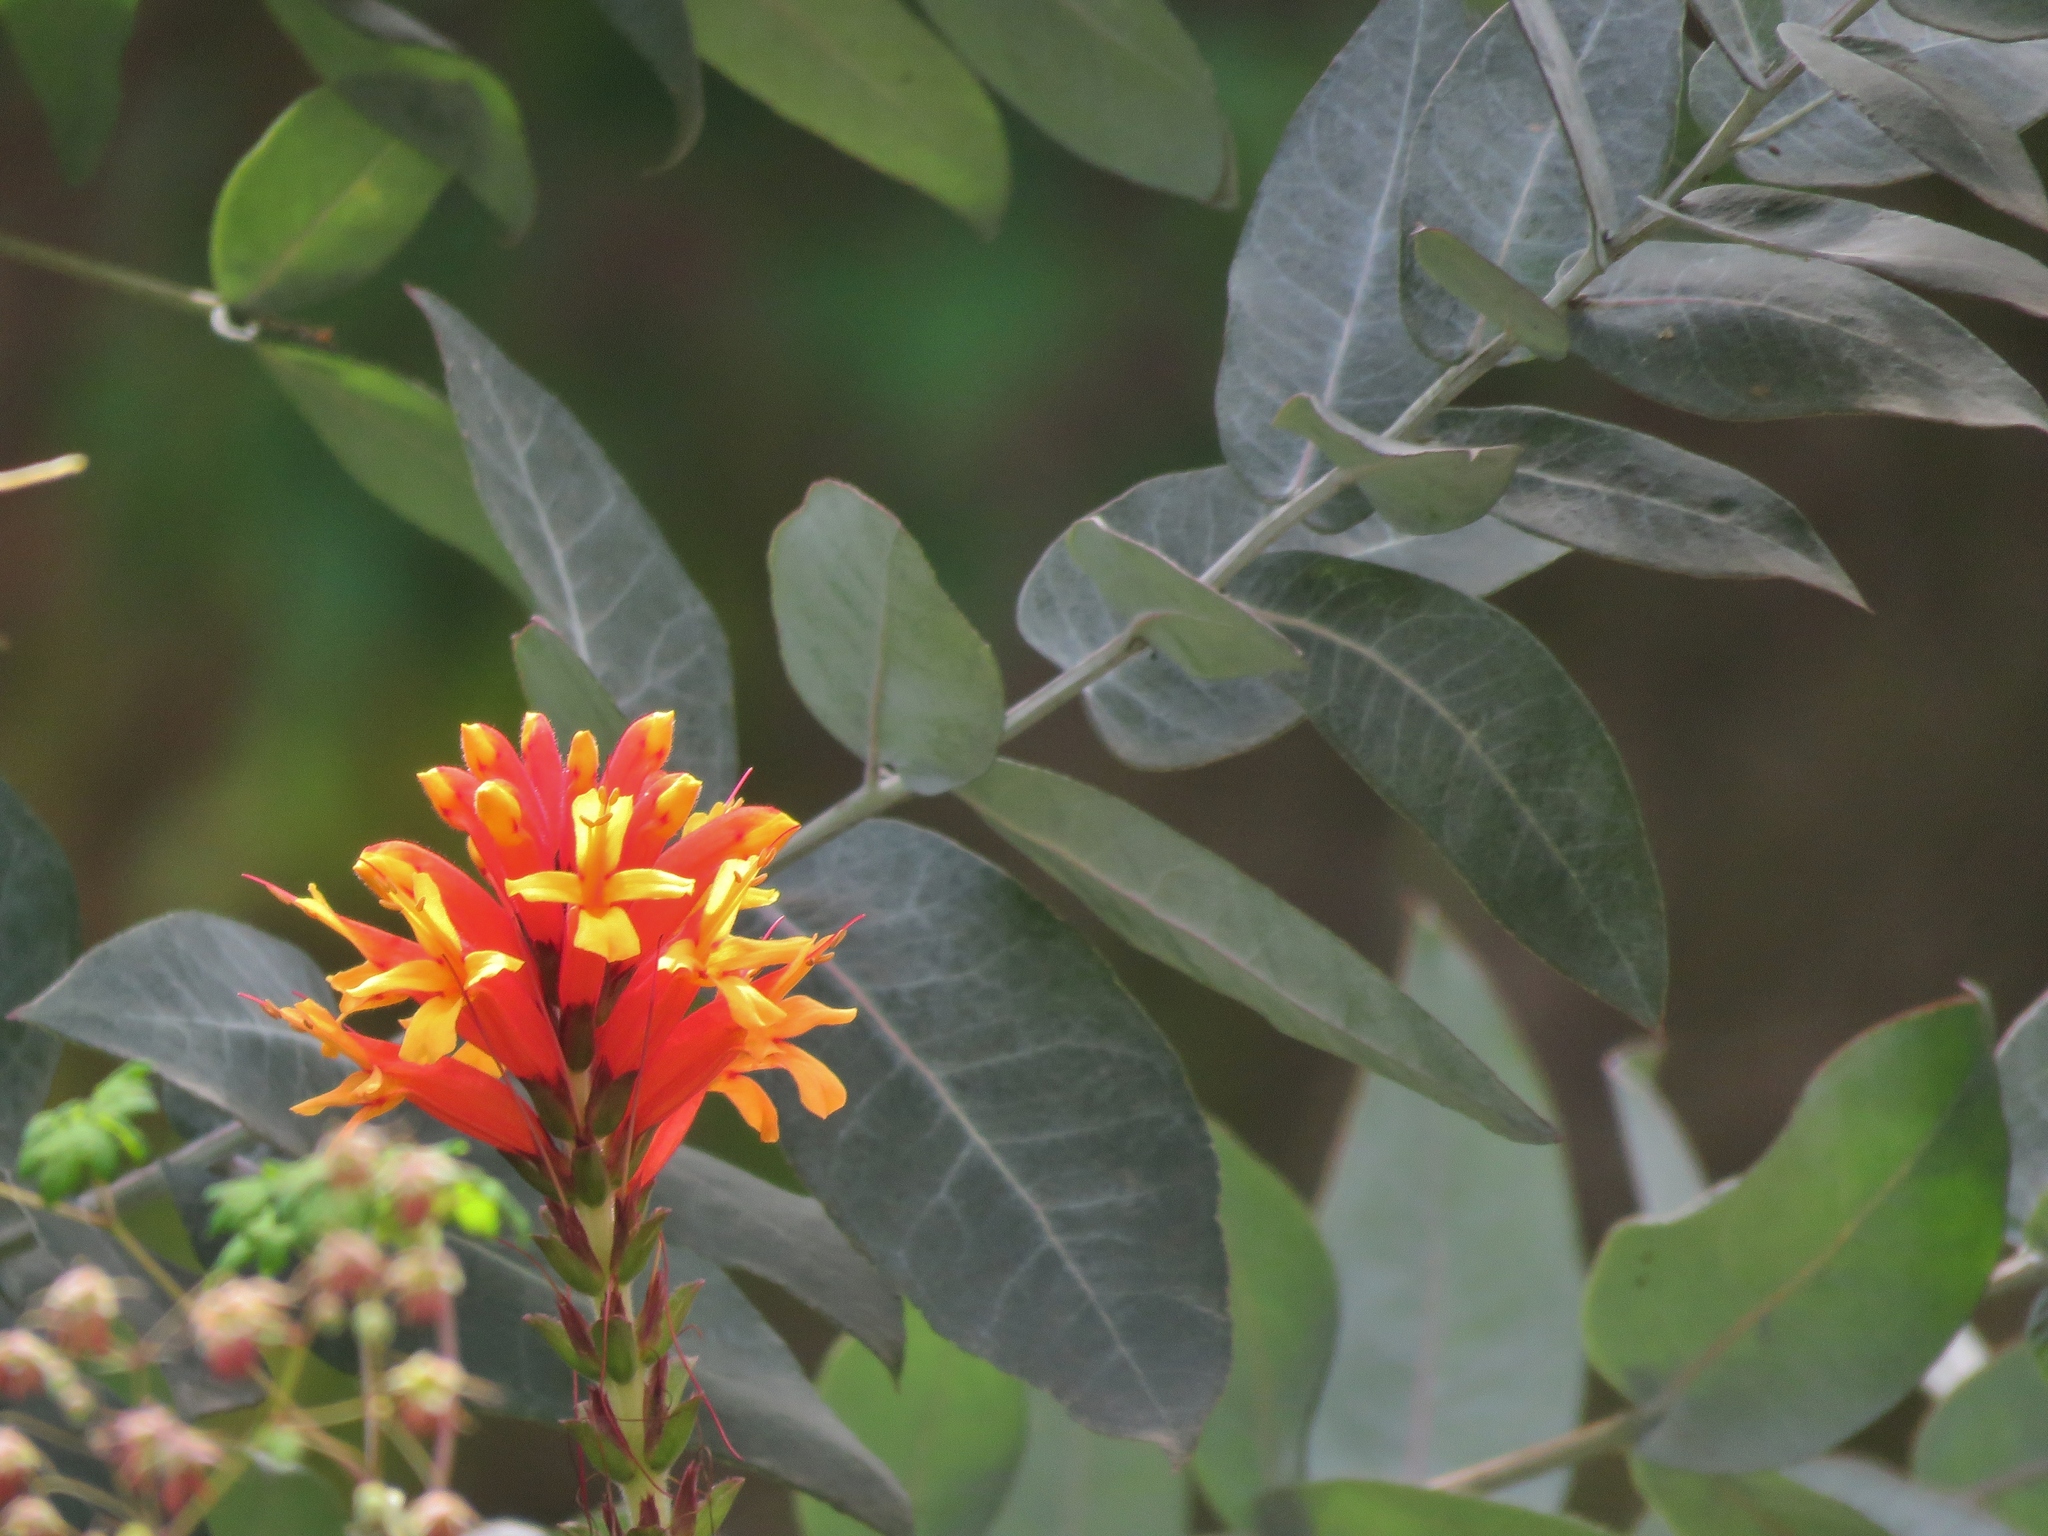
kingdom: Plantae
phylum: Tracheophyta
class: Magnoliopsida
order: Lamiales
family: Acanthaceae
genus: Aphelandra
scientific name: Aphelandra lyrata
